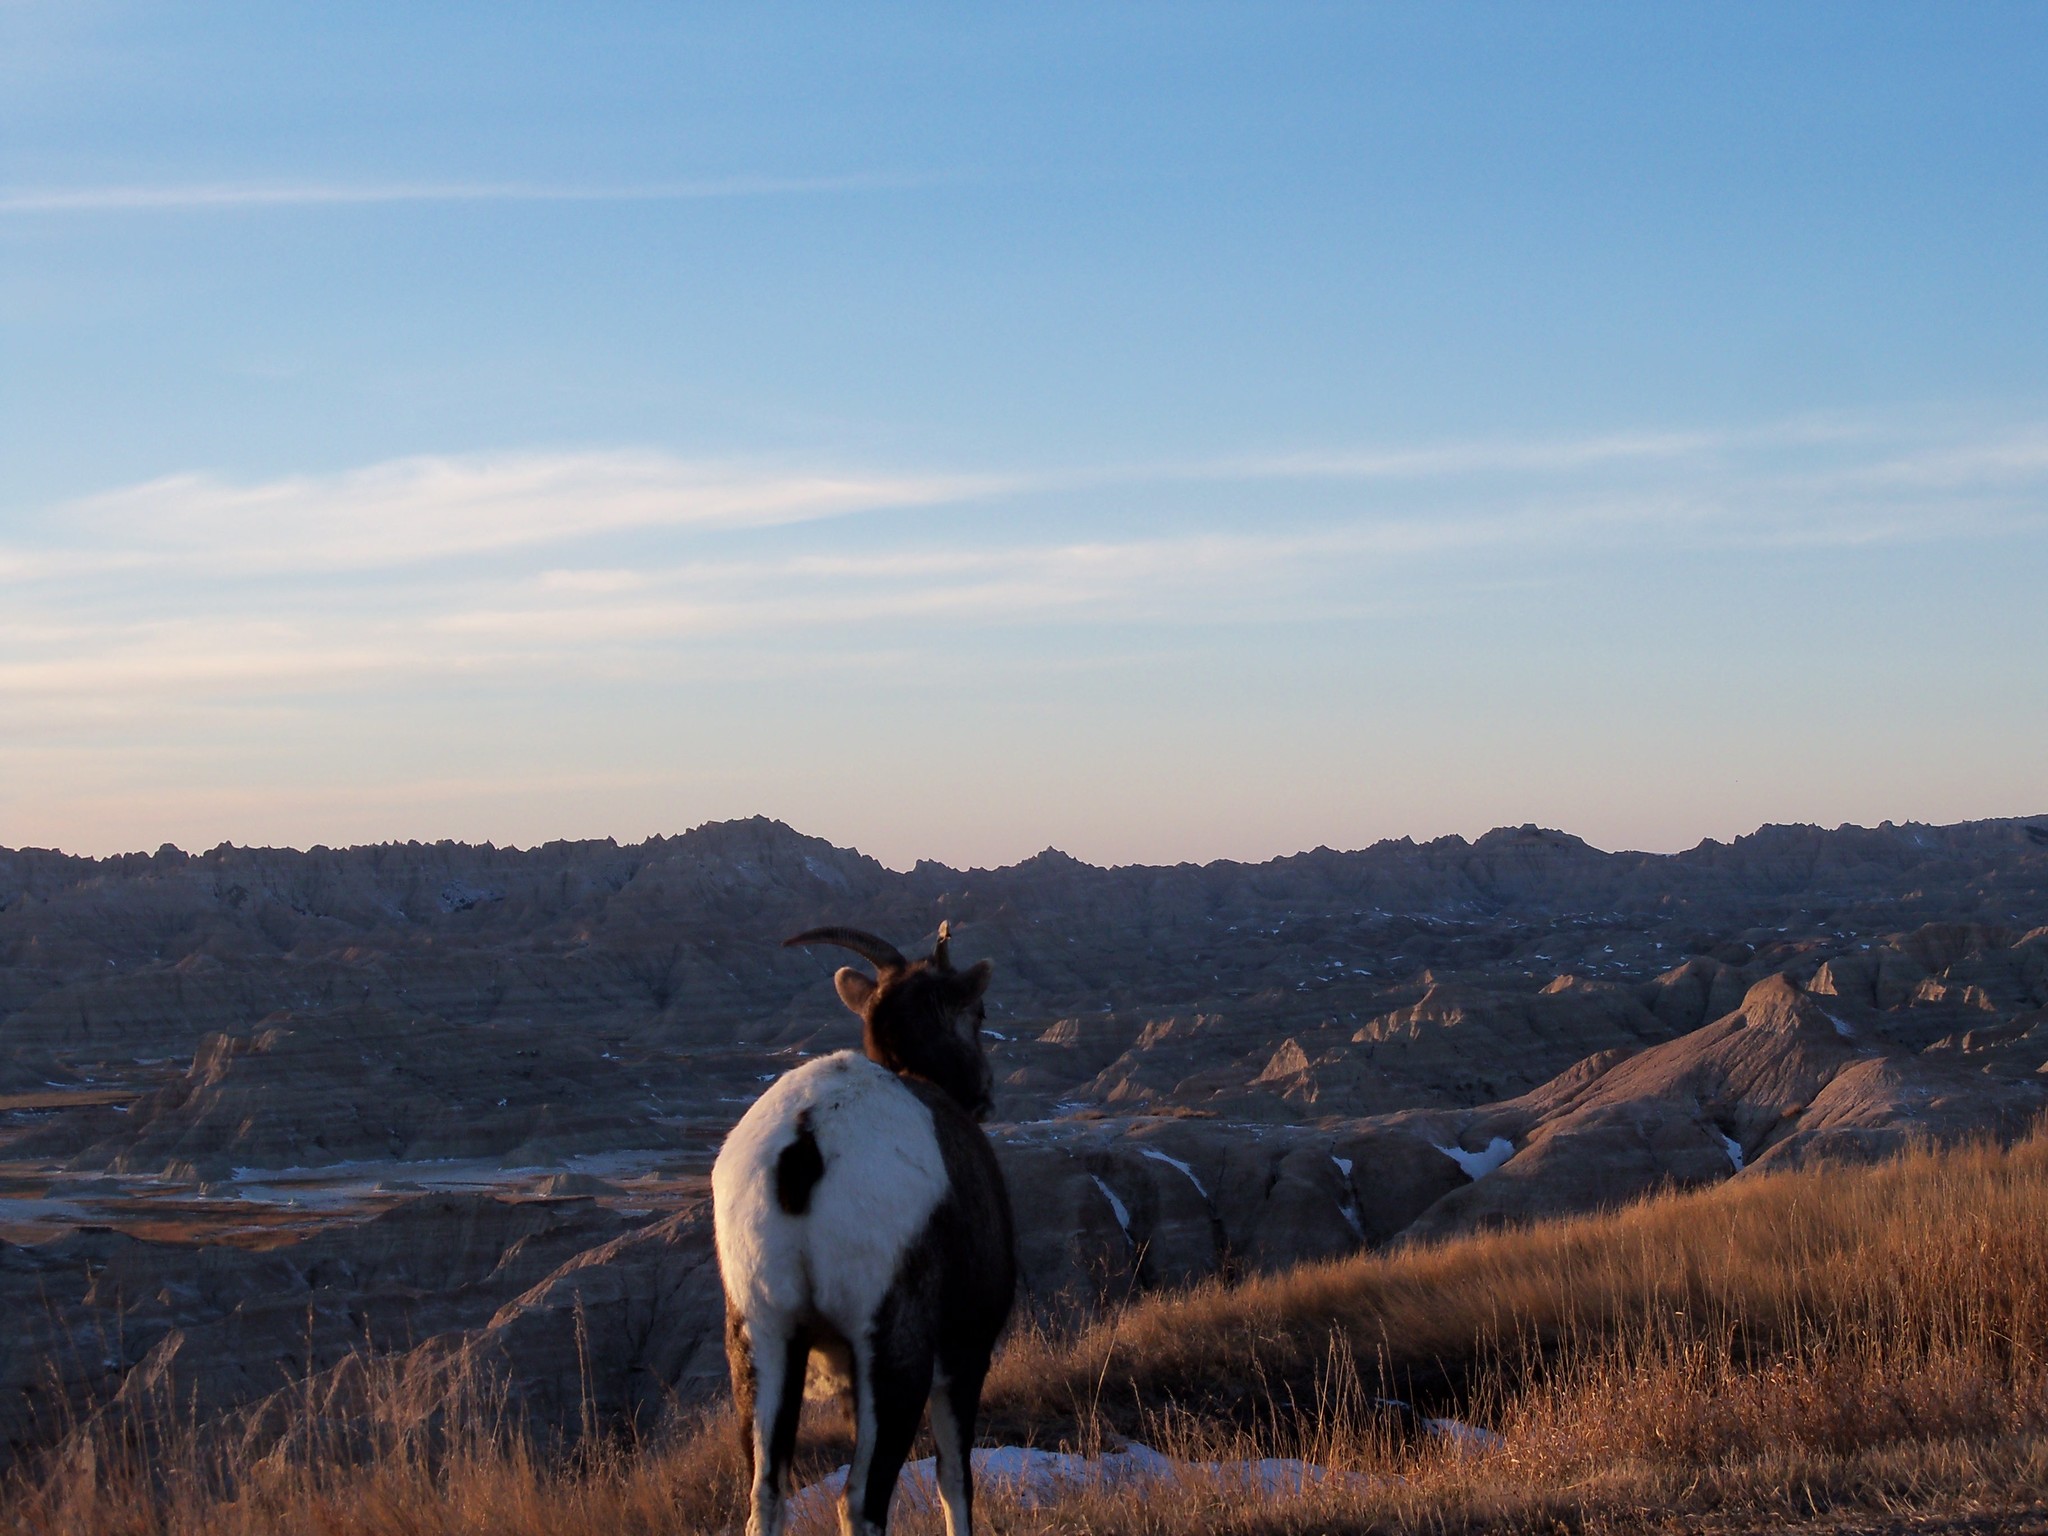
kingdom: Animalia
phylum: Chordata
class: Mammalia
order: Artiodactyla
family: Bovidae
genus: Ovis
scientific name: Ovis canadensis
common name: Bighorn sheep
